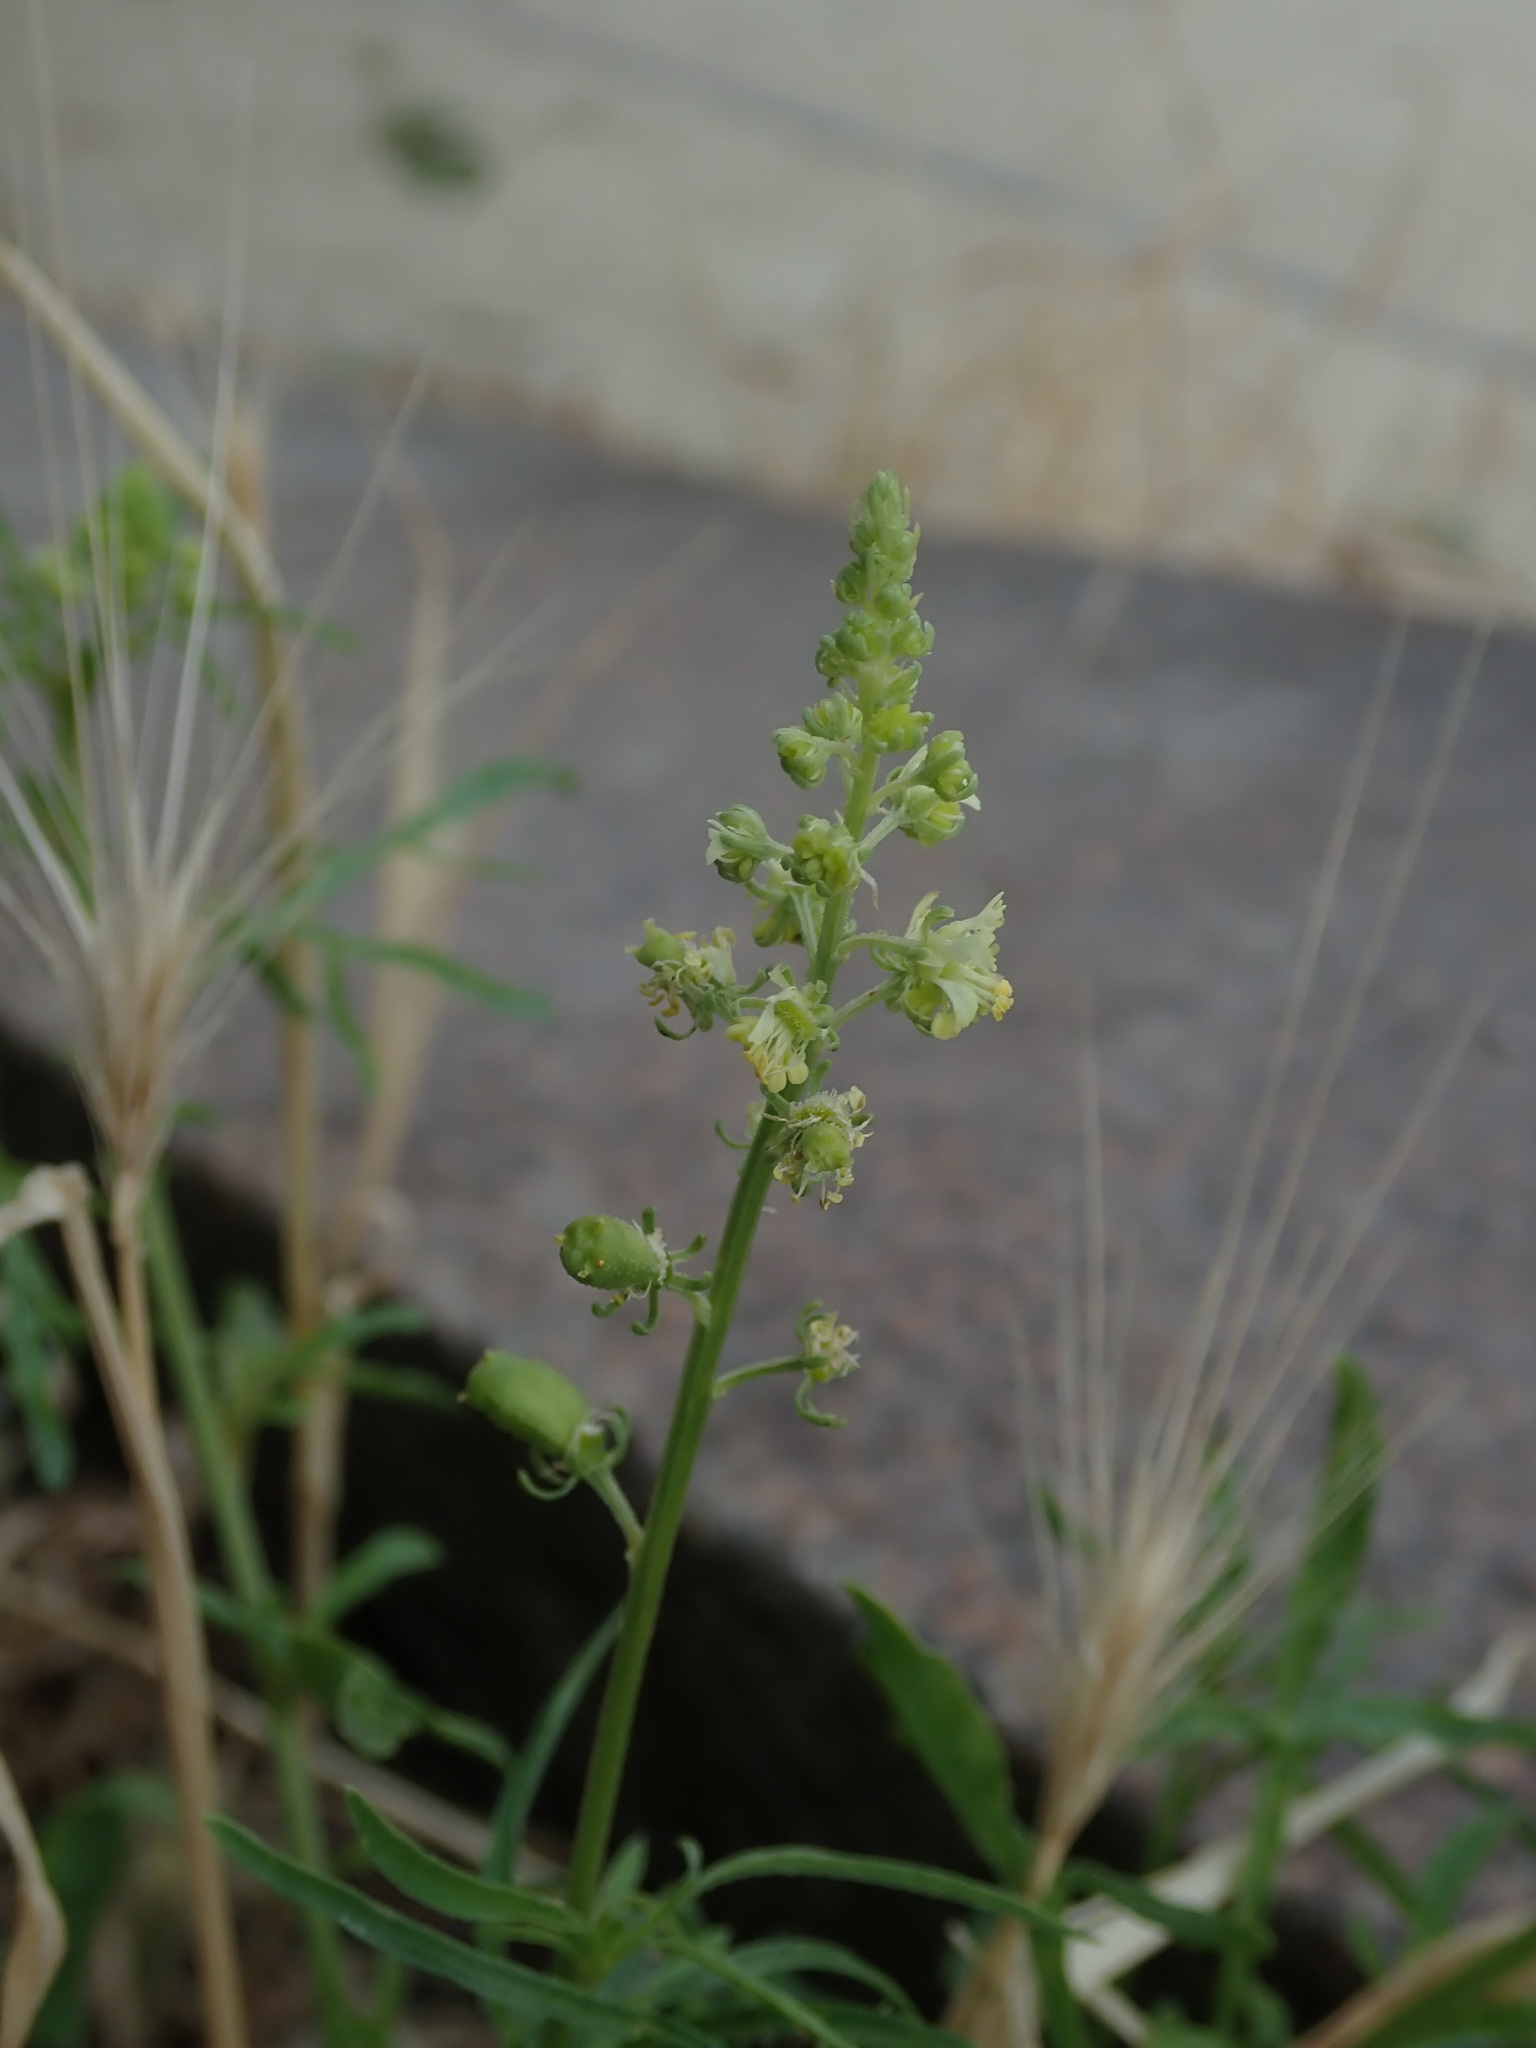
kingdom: Plantae
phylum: Tracheophyta
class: Magnoliopsida
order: Brassicales
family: Resedaceae
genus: Reseda
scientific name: Reseda lutea
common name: Wild mignonette
